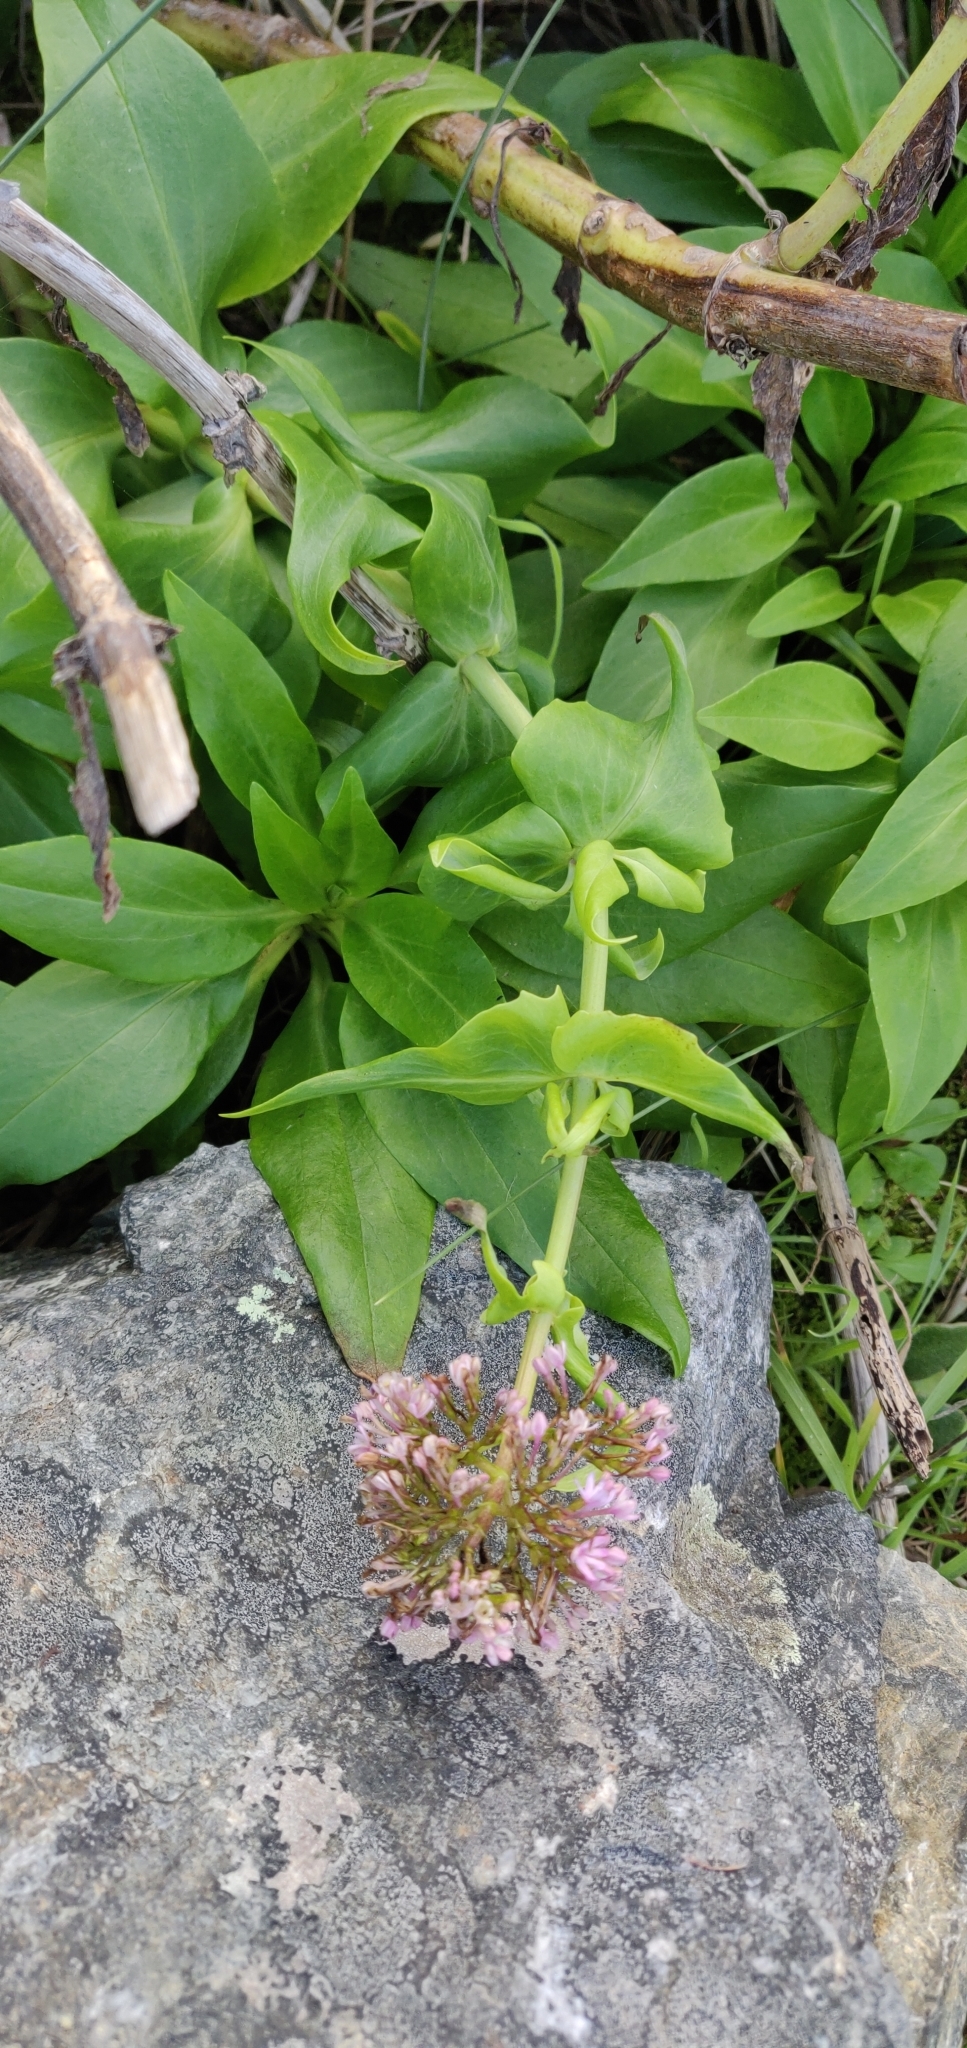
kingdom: Plantae
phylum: Tracheophyta
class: Magnoliopsida
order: Dipsacales
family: Caprifoliaceae
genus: Centranthus
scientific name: Centranthus ruber
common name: Red valerian
